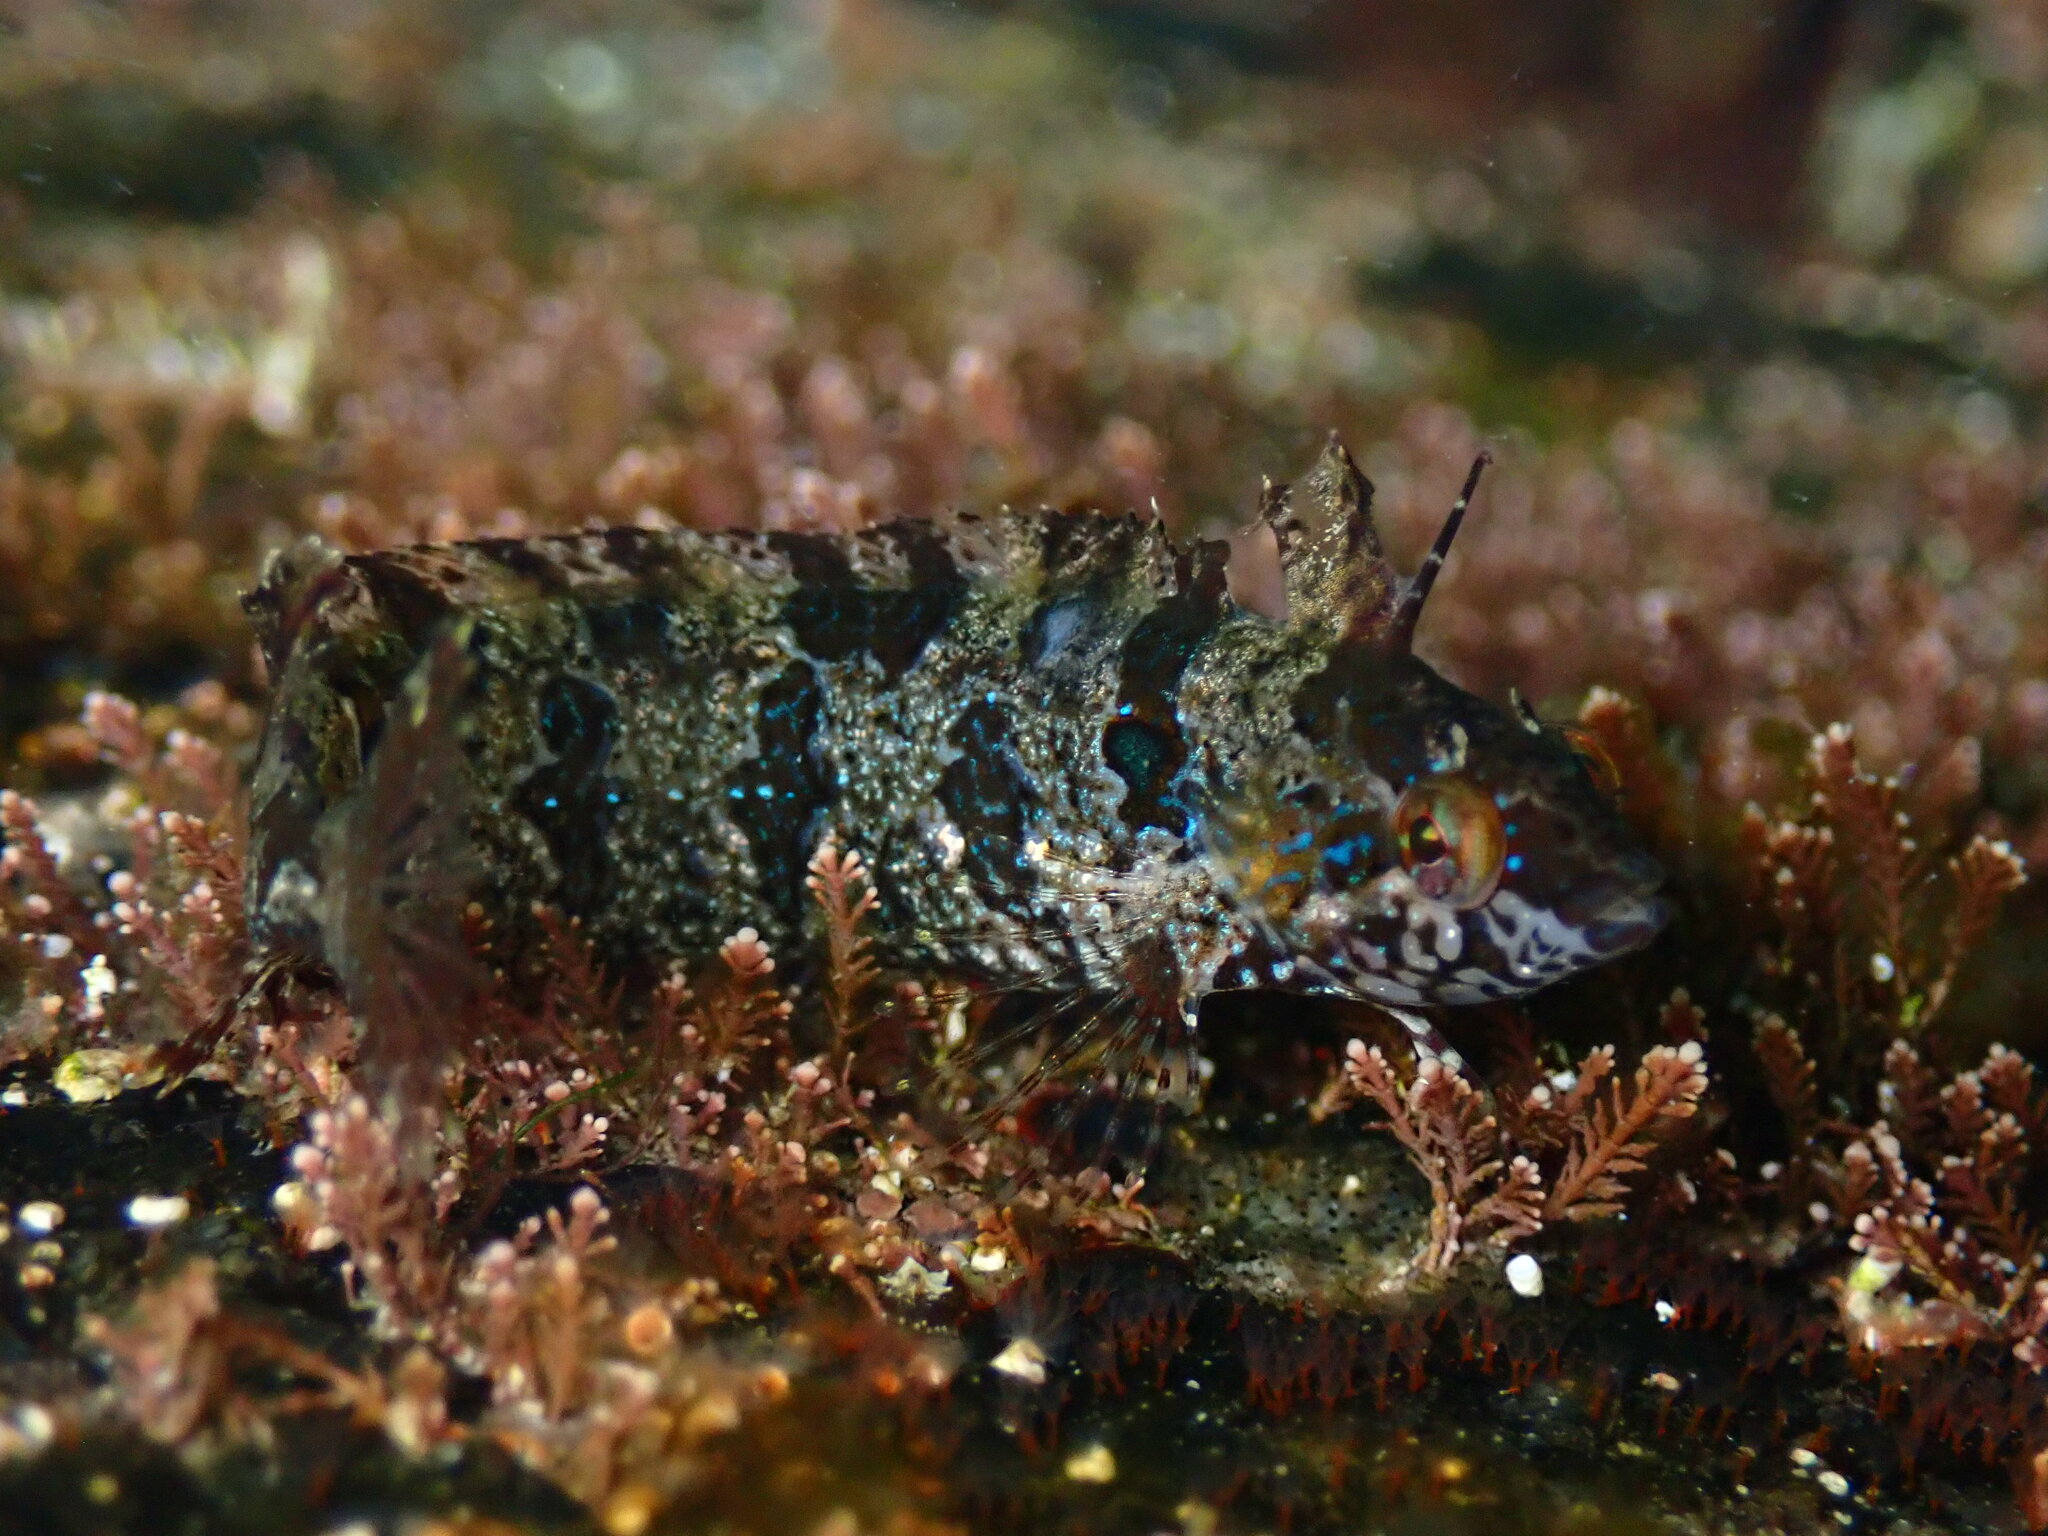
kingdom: Animalia
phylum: Chordata
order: Perciformes
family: Clinidae
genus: Gibbonsia
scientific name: Gibbonsia elegans
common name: Spotted kelpfish
